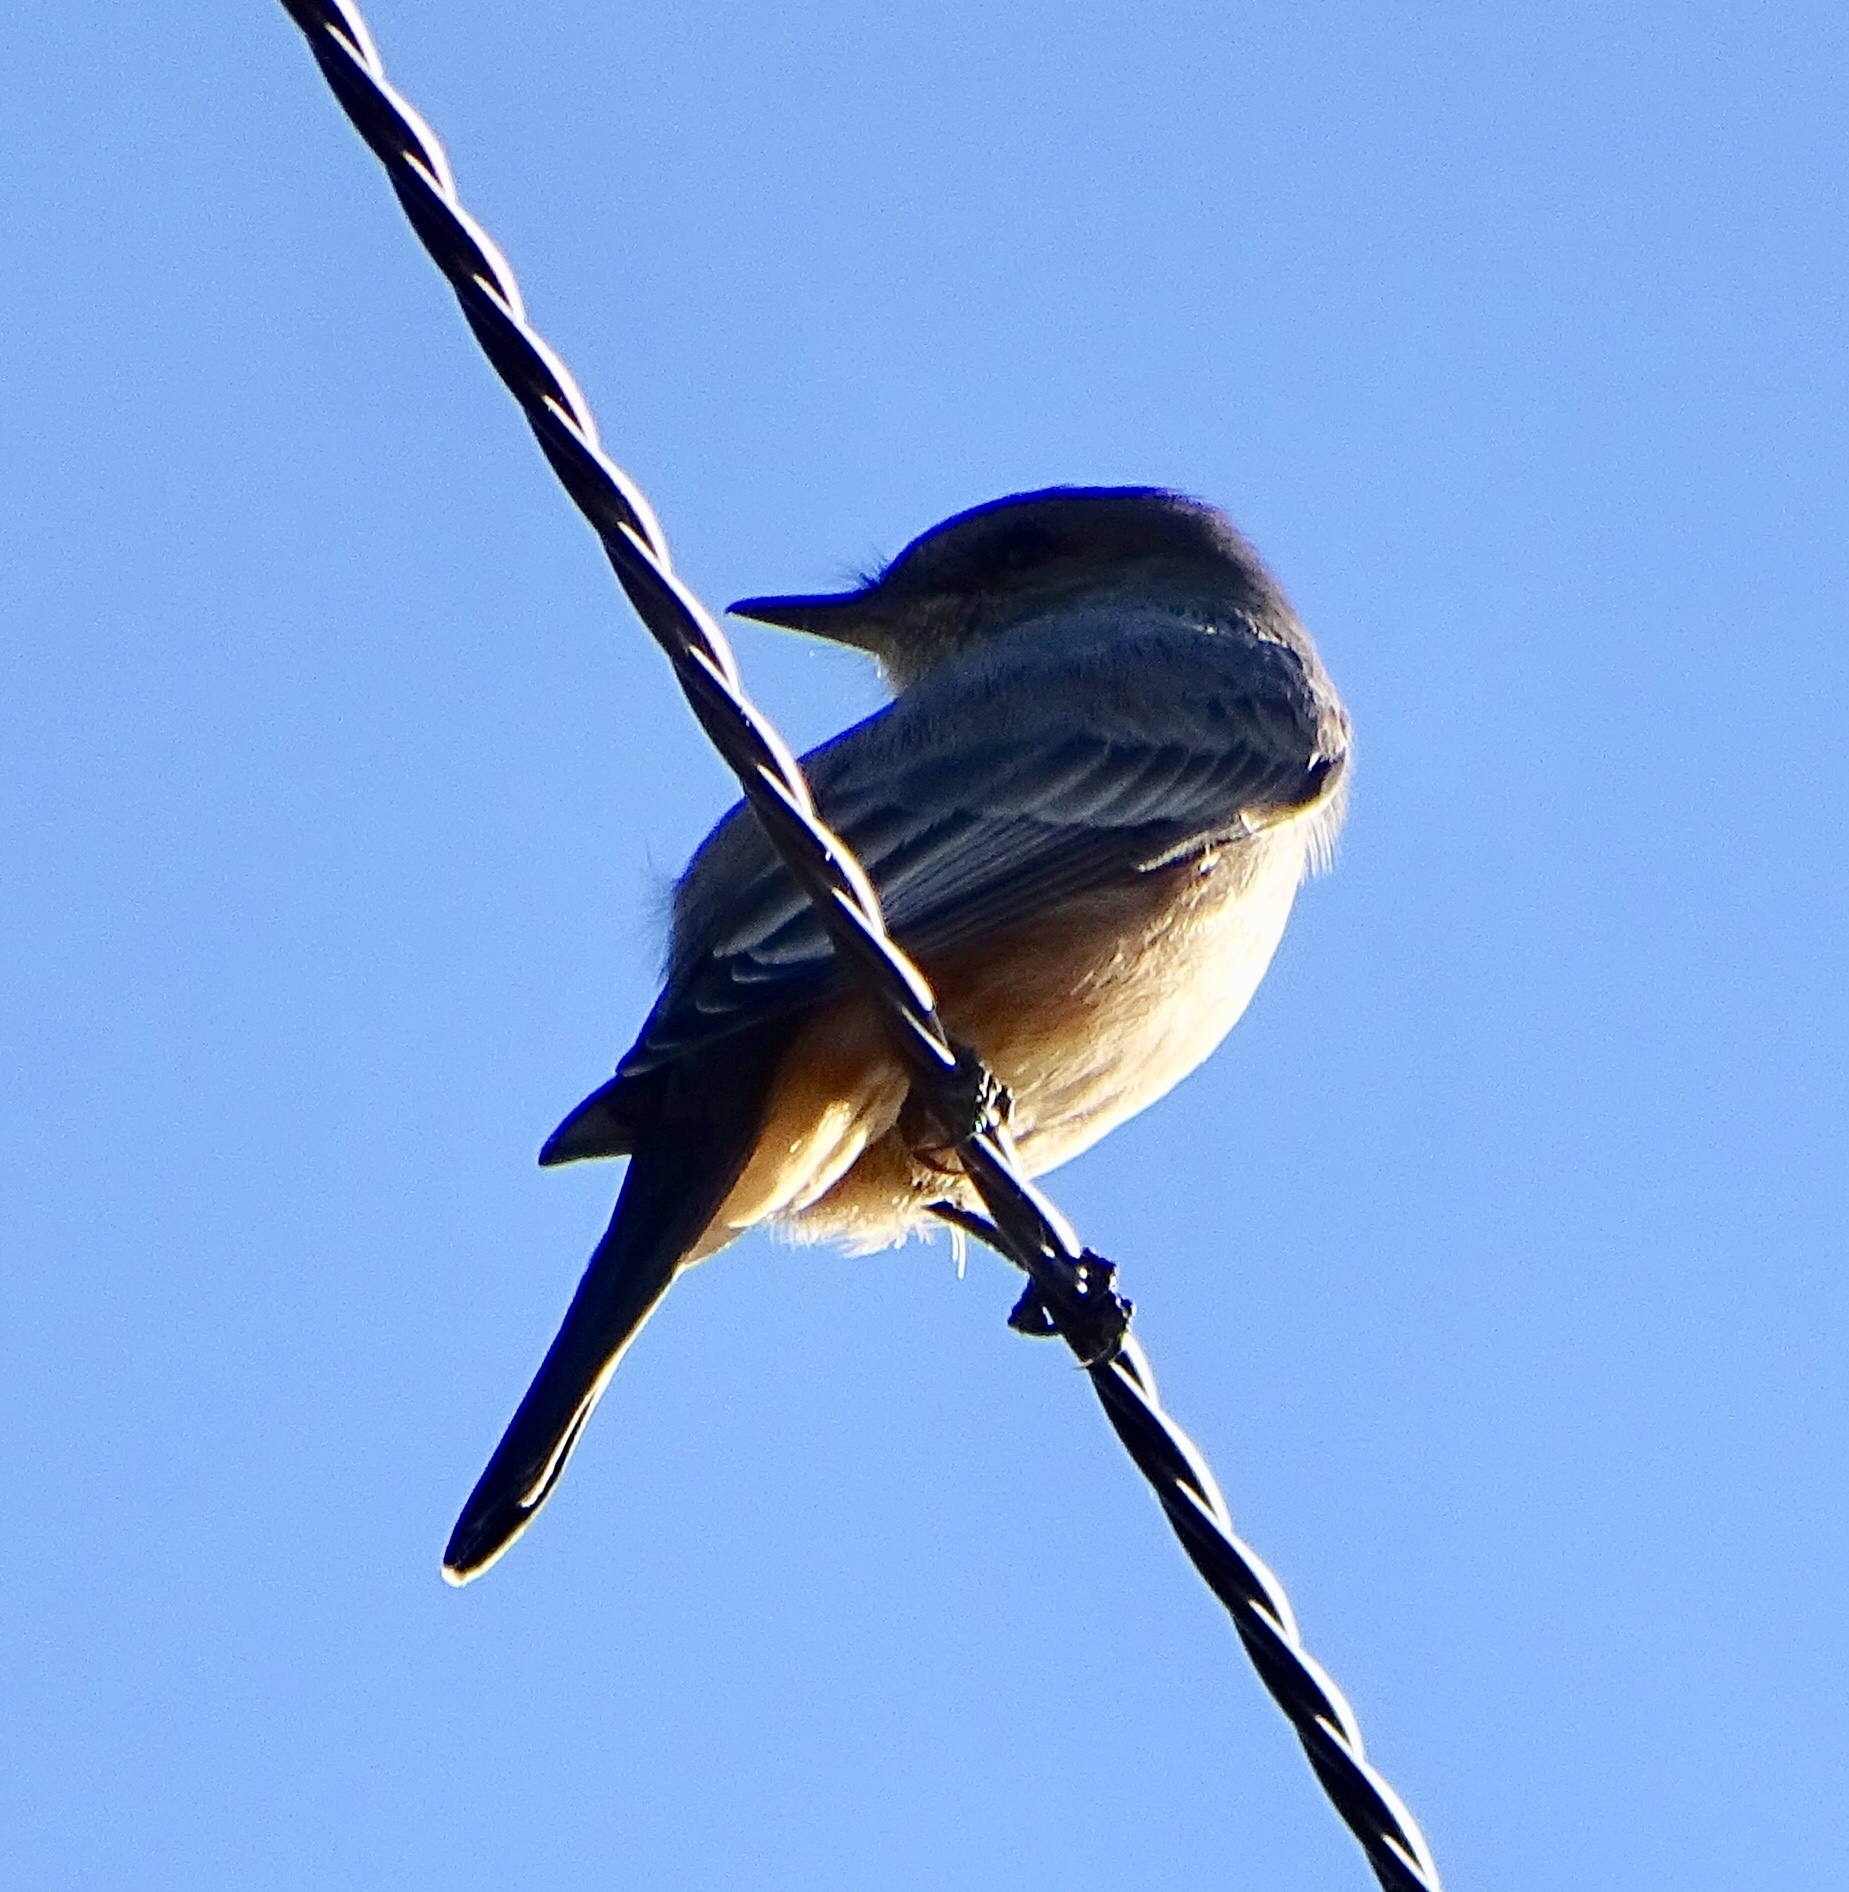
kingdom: Animalia
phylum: Chordata
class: Aves
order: Passeriformes
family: Tyrannidae
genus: Sayornis
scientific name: Sayornis saya
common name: Say's phoebe
